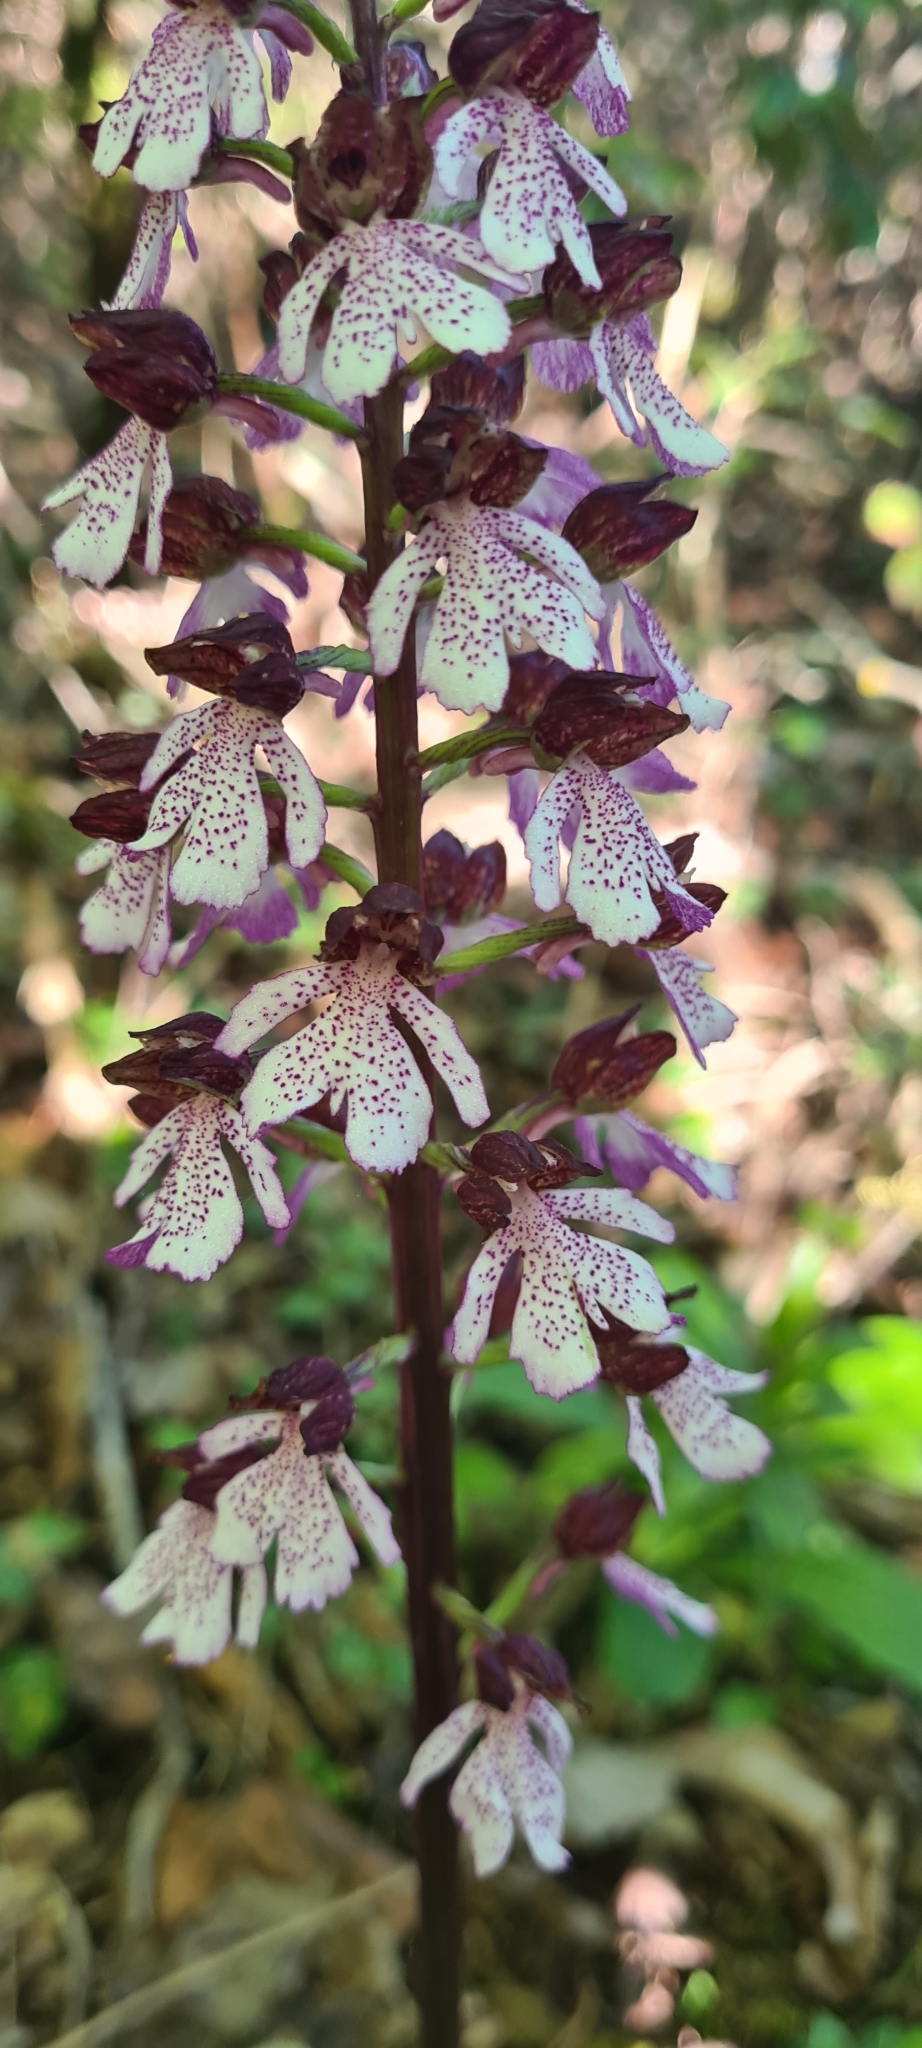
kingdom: Plantae
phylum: Tracheophyta
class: Liliopsida
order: Asparagales
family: Orchidaceae
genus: Orchis
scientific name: Orchis purpurea
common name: Lady orchid
